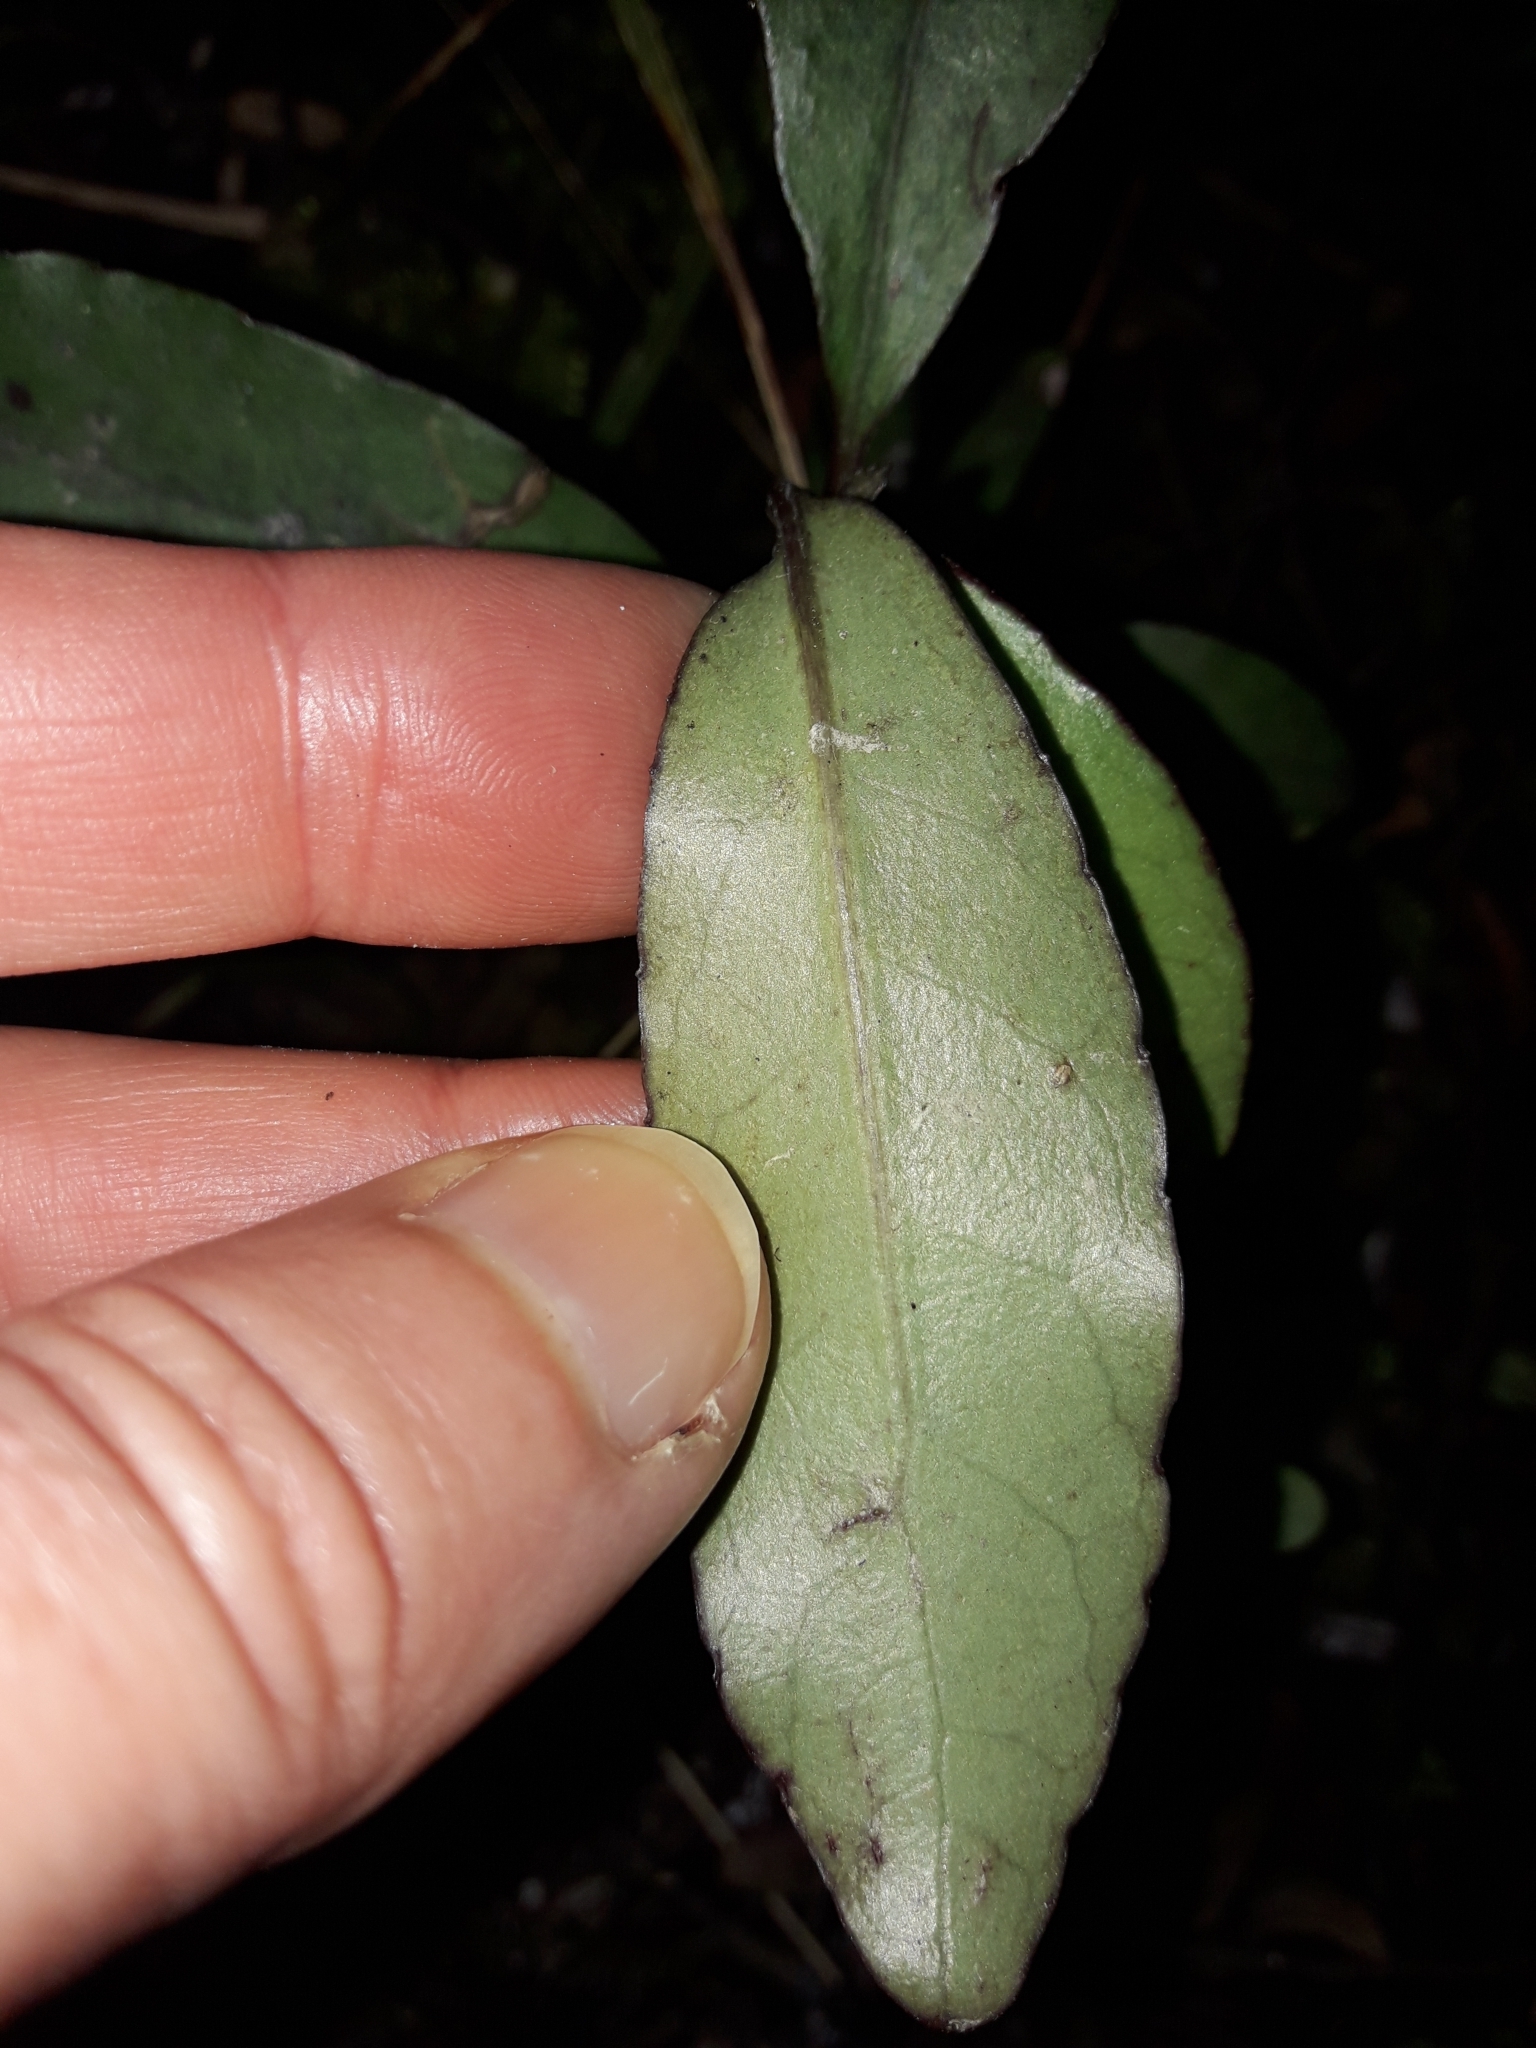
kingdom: Plantae
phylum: Tracheophyta
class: Magnoliopsida
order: Asterales
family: Alseuosmiaceae
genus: Alseuosmia
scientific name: Alseuosmia pusilla
